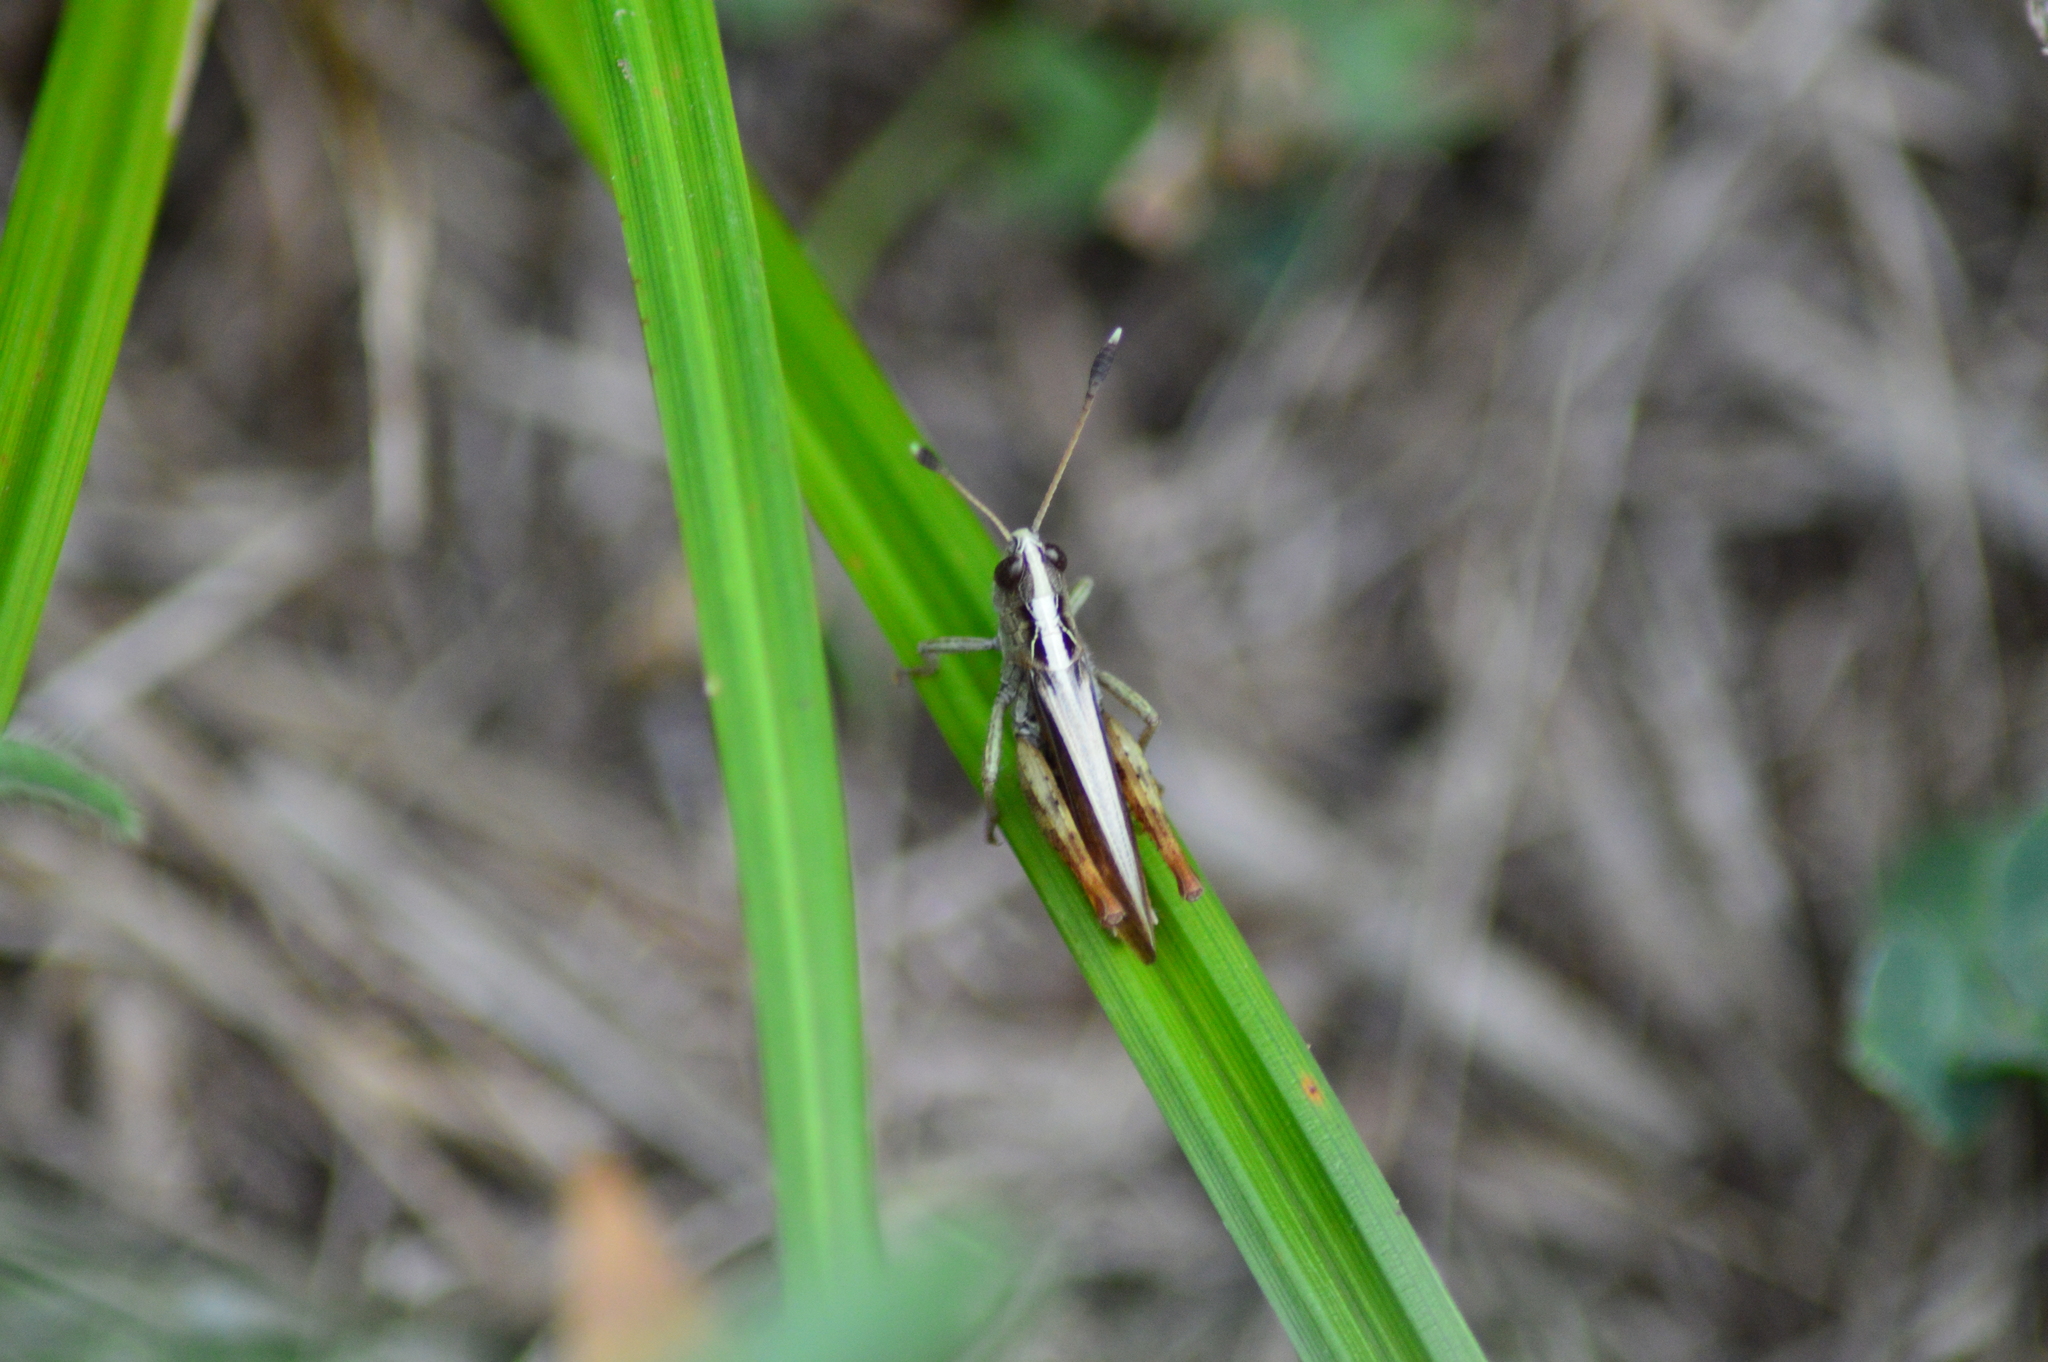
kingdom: Animalia
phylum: Arthropoda
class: Insecta
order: Orthoptera
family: Acrididae
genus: Gomphocerippus
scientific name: Gomphocerippus rufus
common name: Rufous grasshopper
